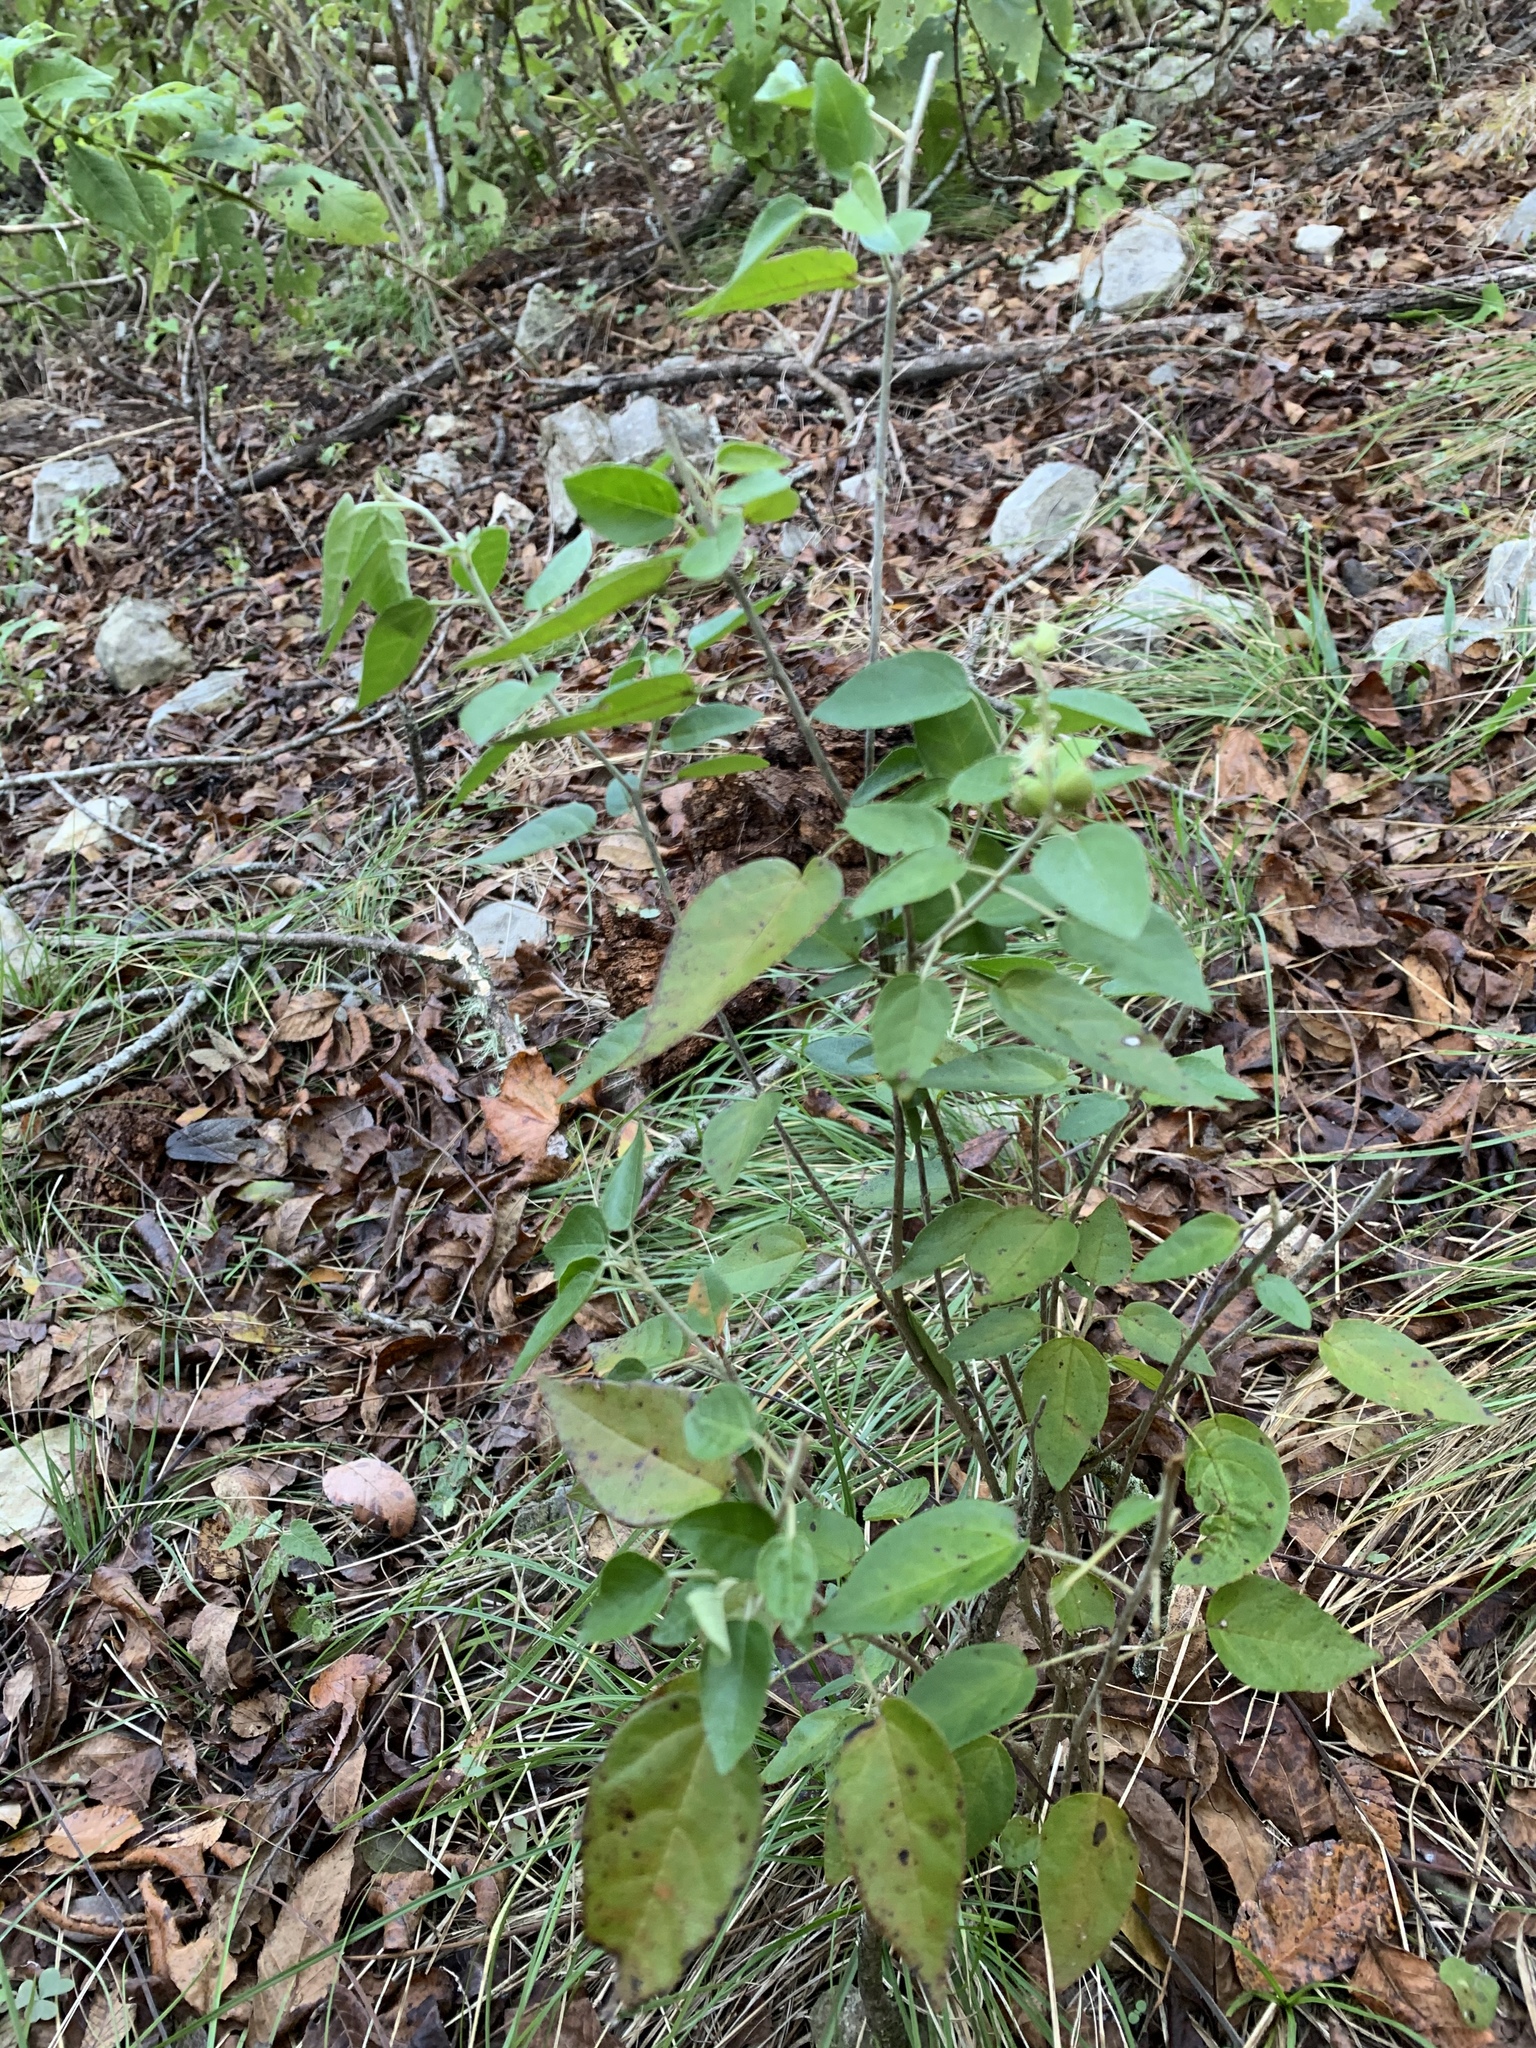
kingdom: Plantae
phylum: Tracheophyta
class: Magnoliopsida
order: Malpighiales
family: Euphorbiaceae
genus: Croton
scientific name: Croton fruticulosus
